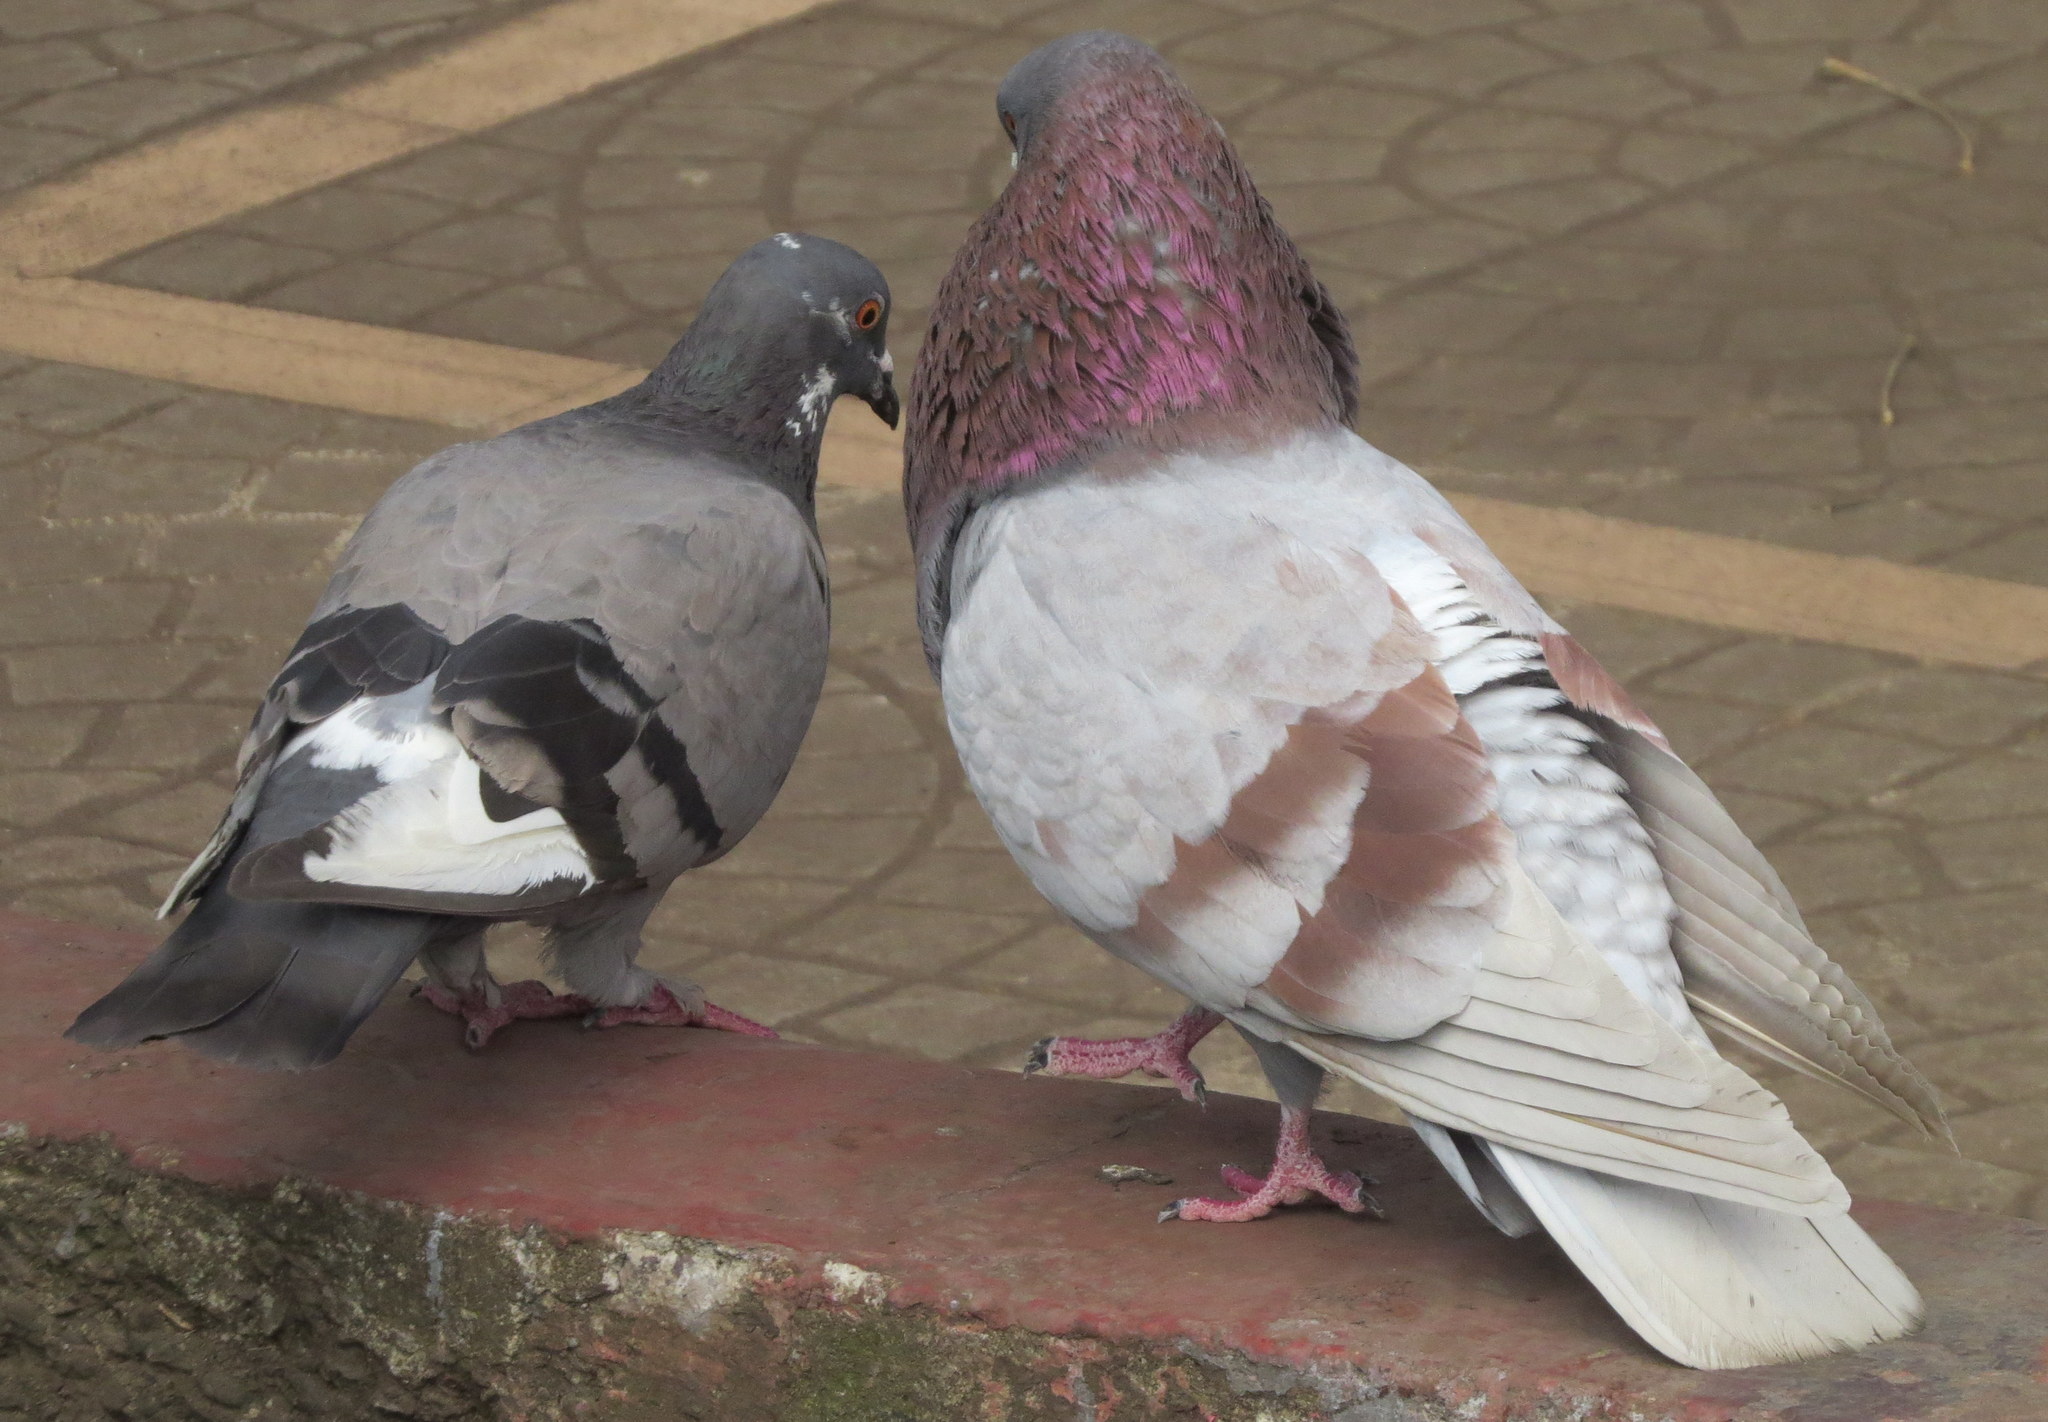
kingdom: Animalia
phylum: Chordata
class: Aves
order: Columbiformes
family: Columbidae
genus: Columba
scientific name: Columba livia
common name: Rock pigeon
